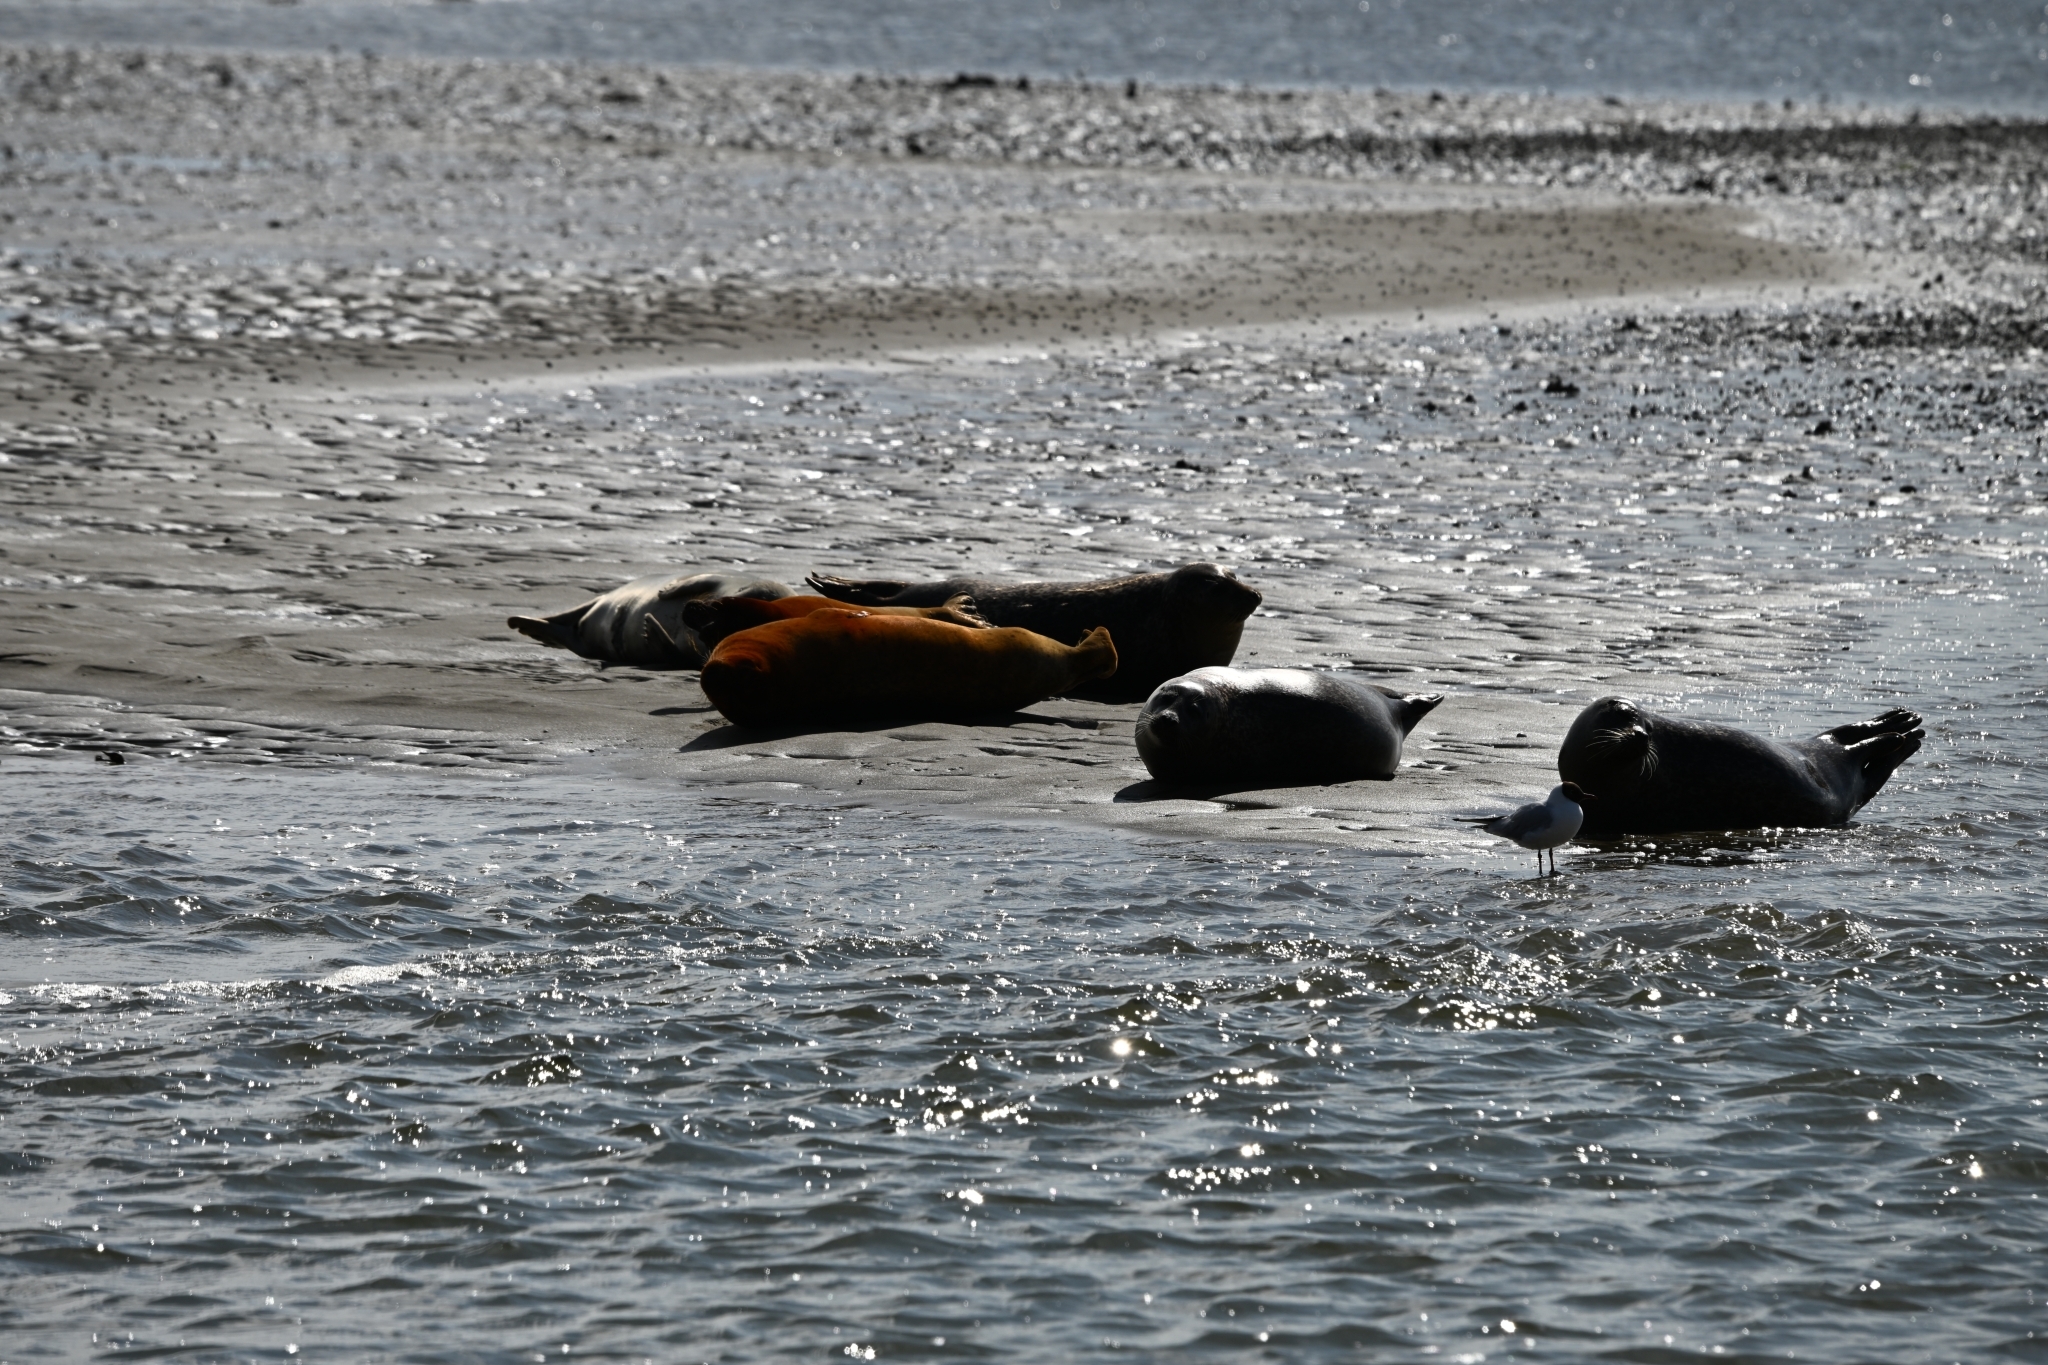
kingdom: Animalia
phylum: Chordata
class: Mammalia
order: Carnivora
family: Phocidae
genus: Phoca
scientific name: Phoca vitulina
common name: Harbor seal
